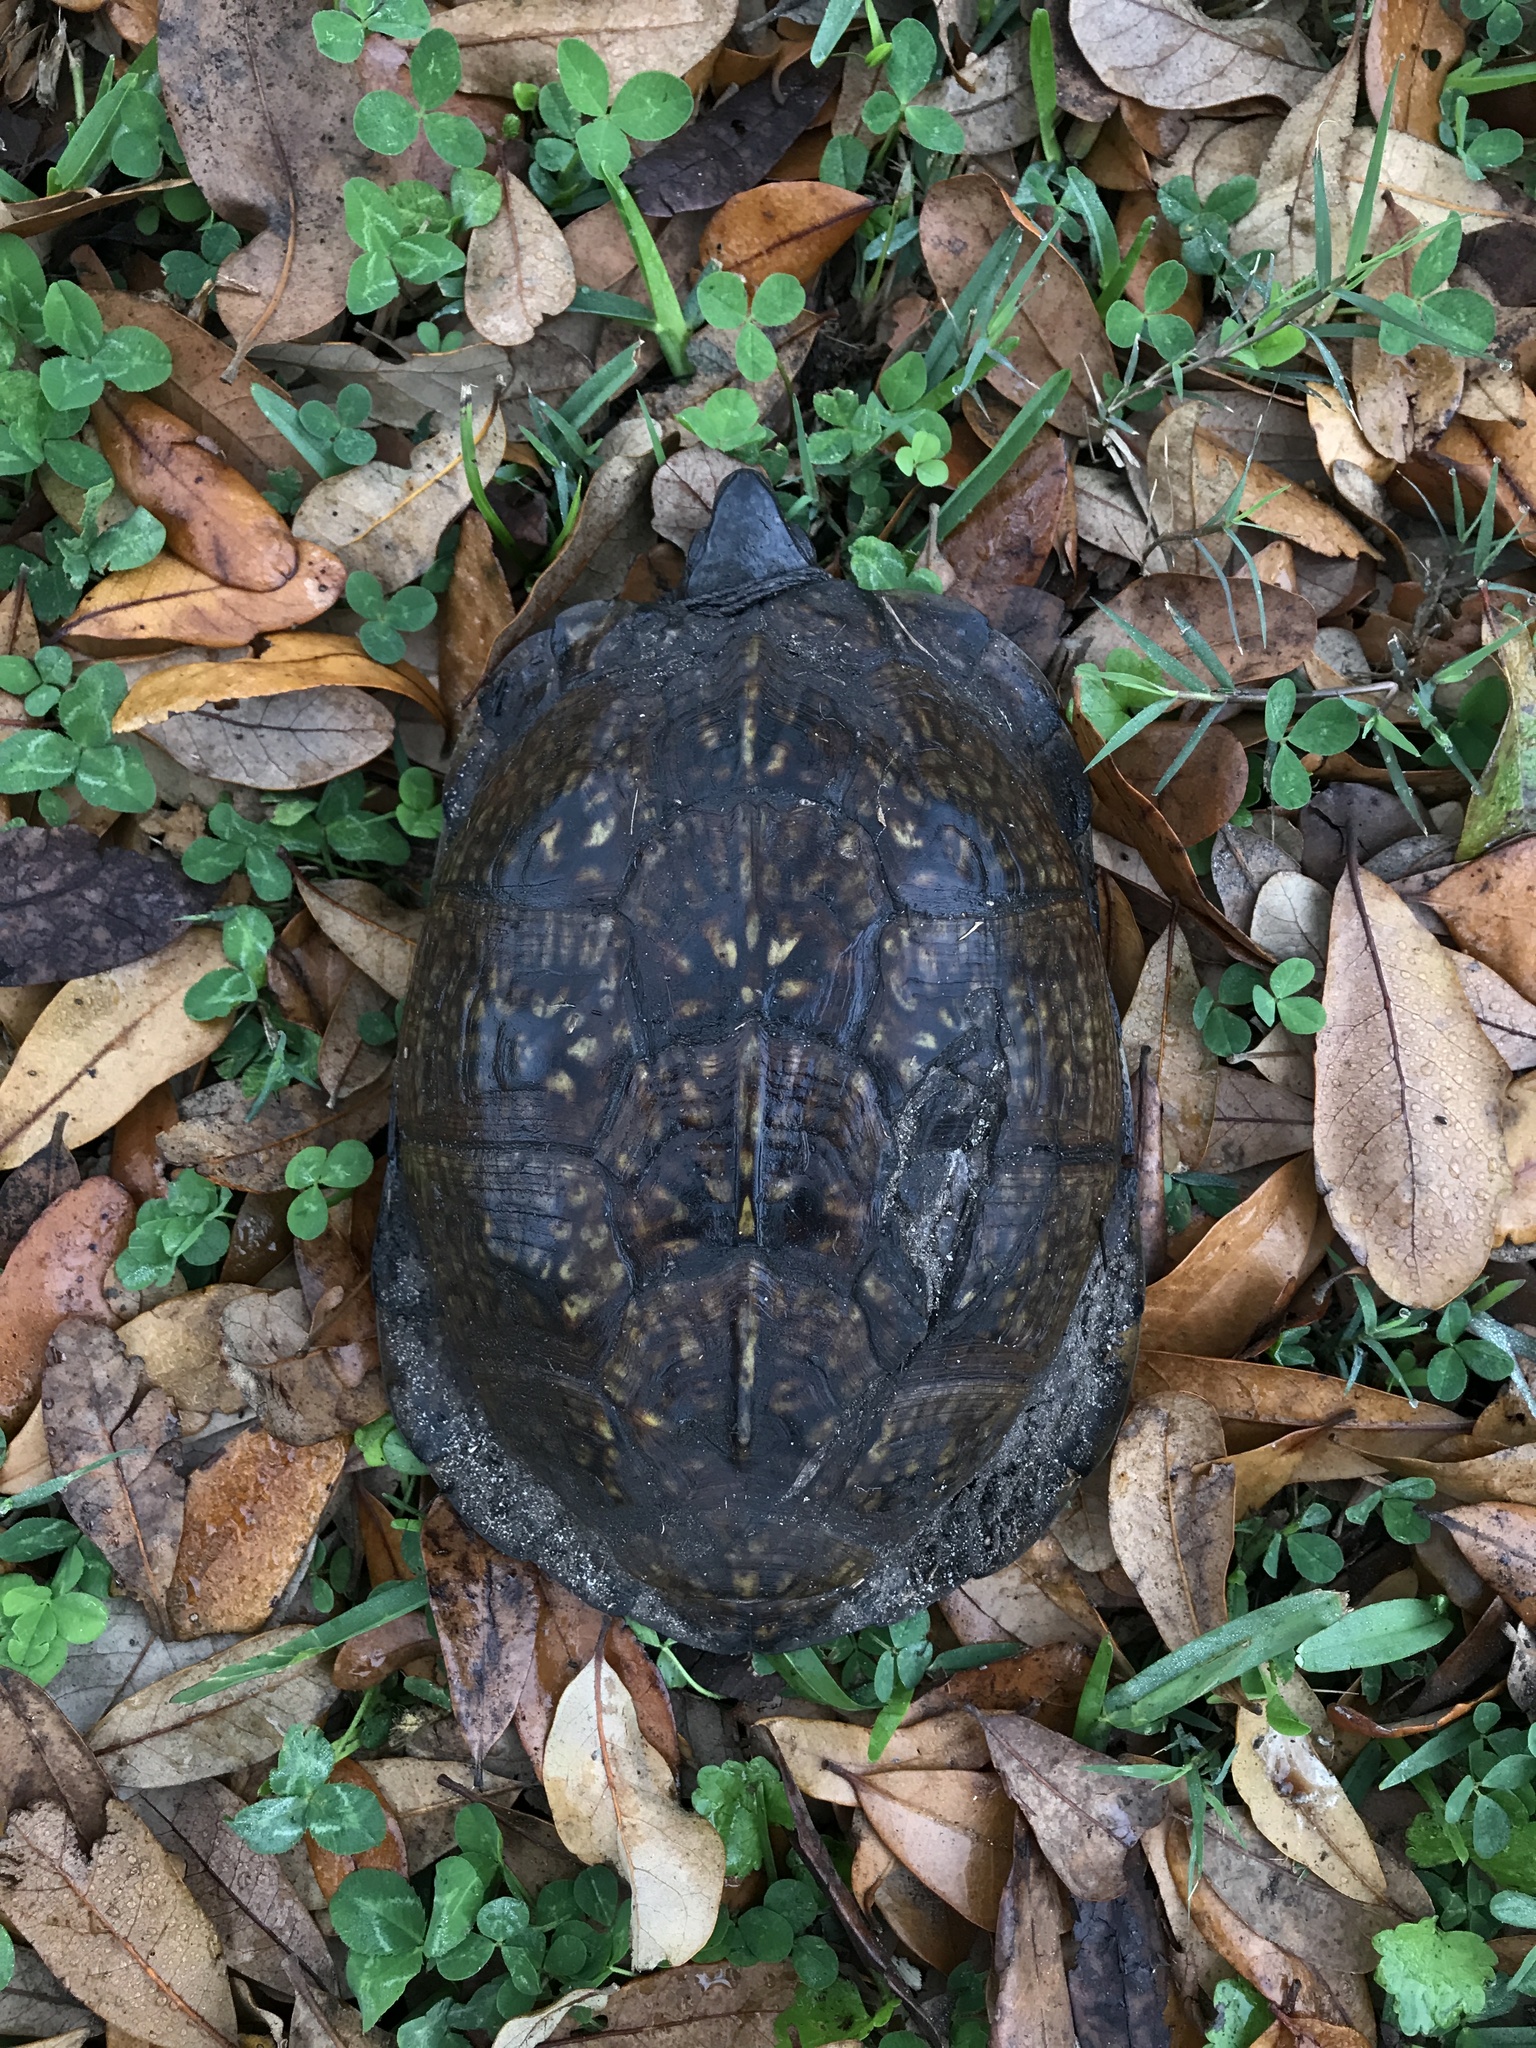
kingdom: Animalia
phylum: Chordata
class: Testudines
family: Emydidae
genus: Terrapene
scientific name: Terrapene carolina
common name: Common box turtle
